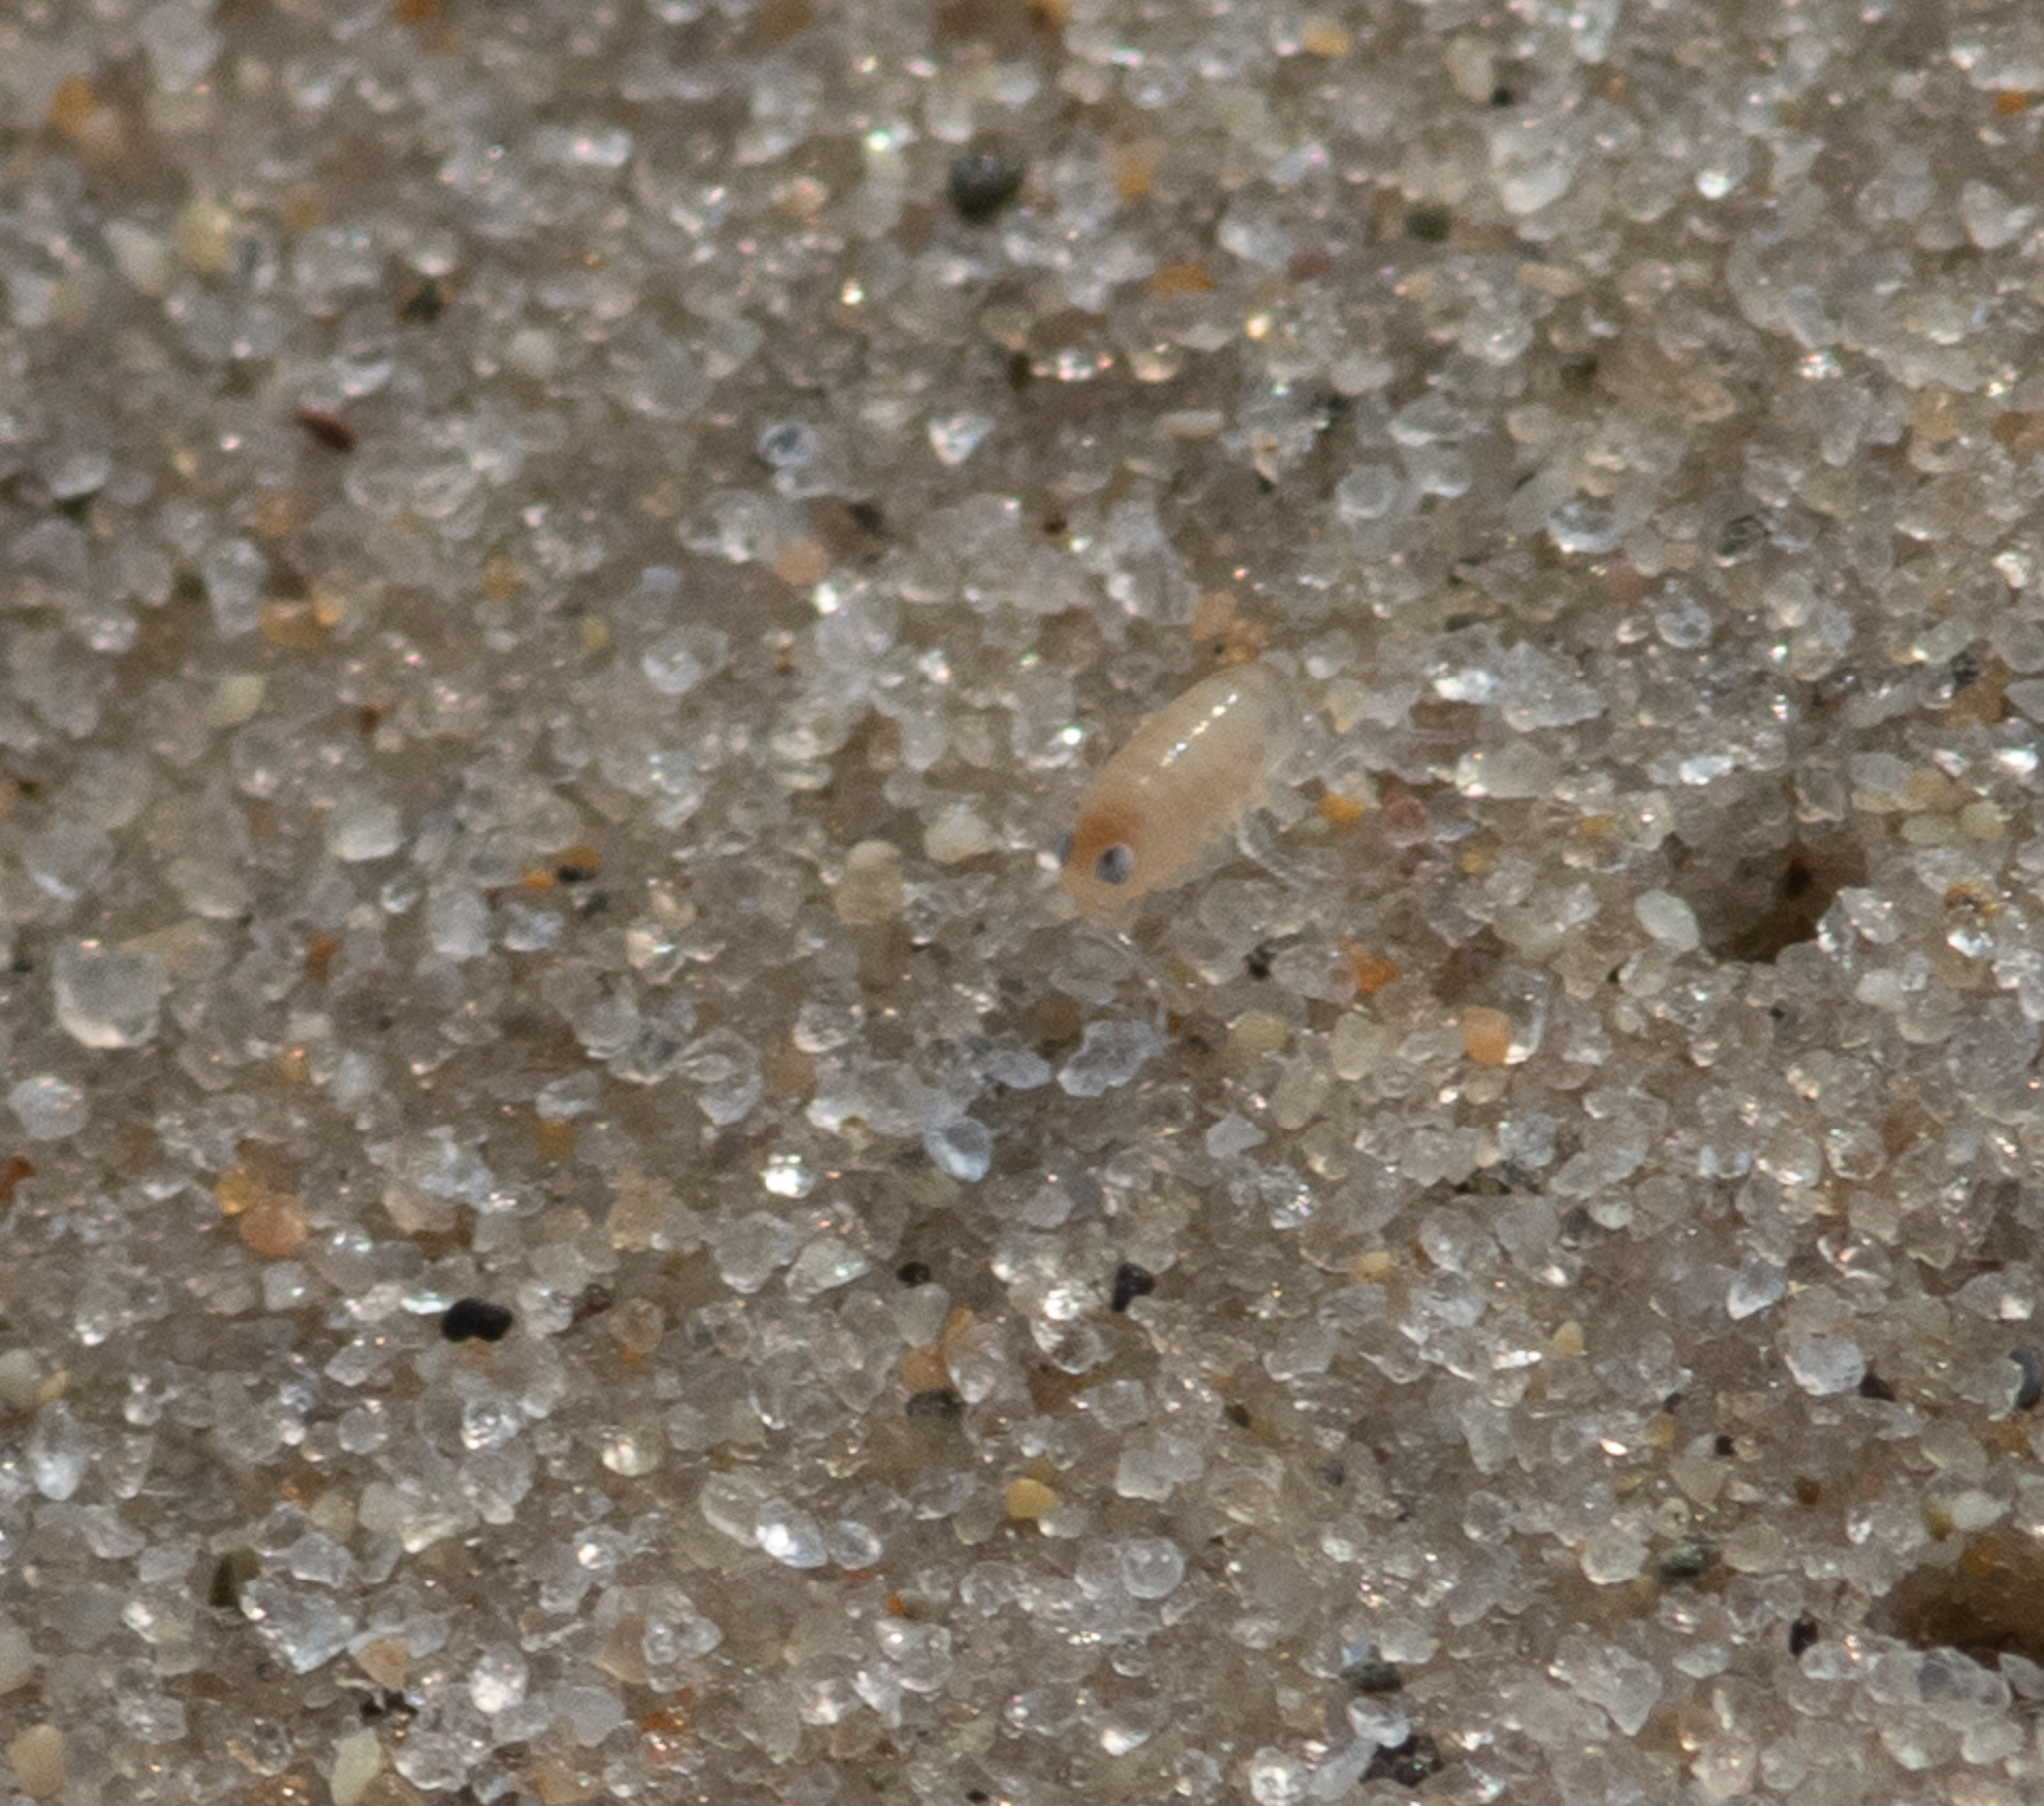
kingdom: Animalia
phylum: Arthropoda
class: Malacostraca
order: Amphipoda
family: Talitridae
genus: Americorchestia
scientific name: Americorchestia
